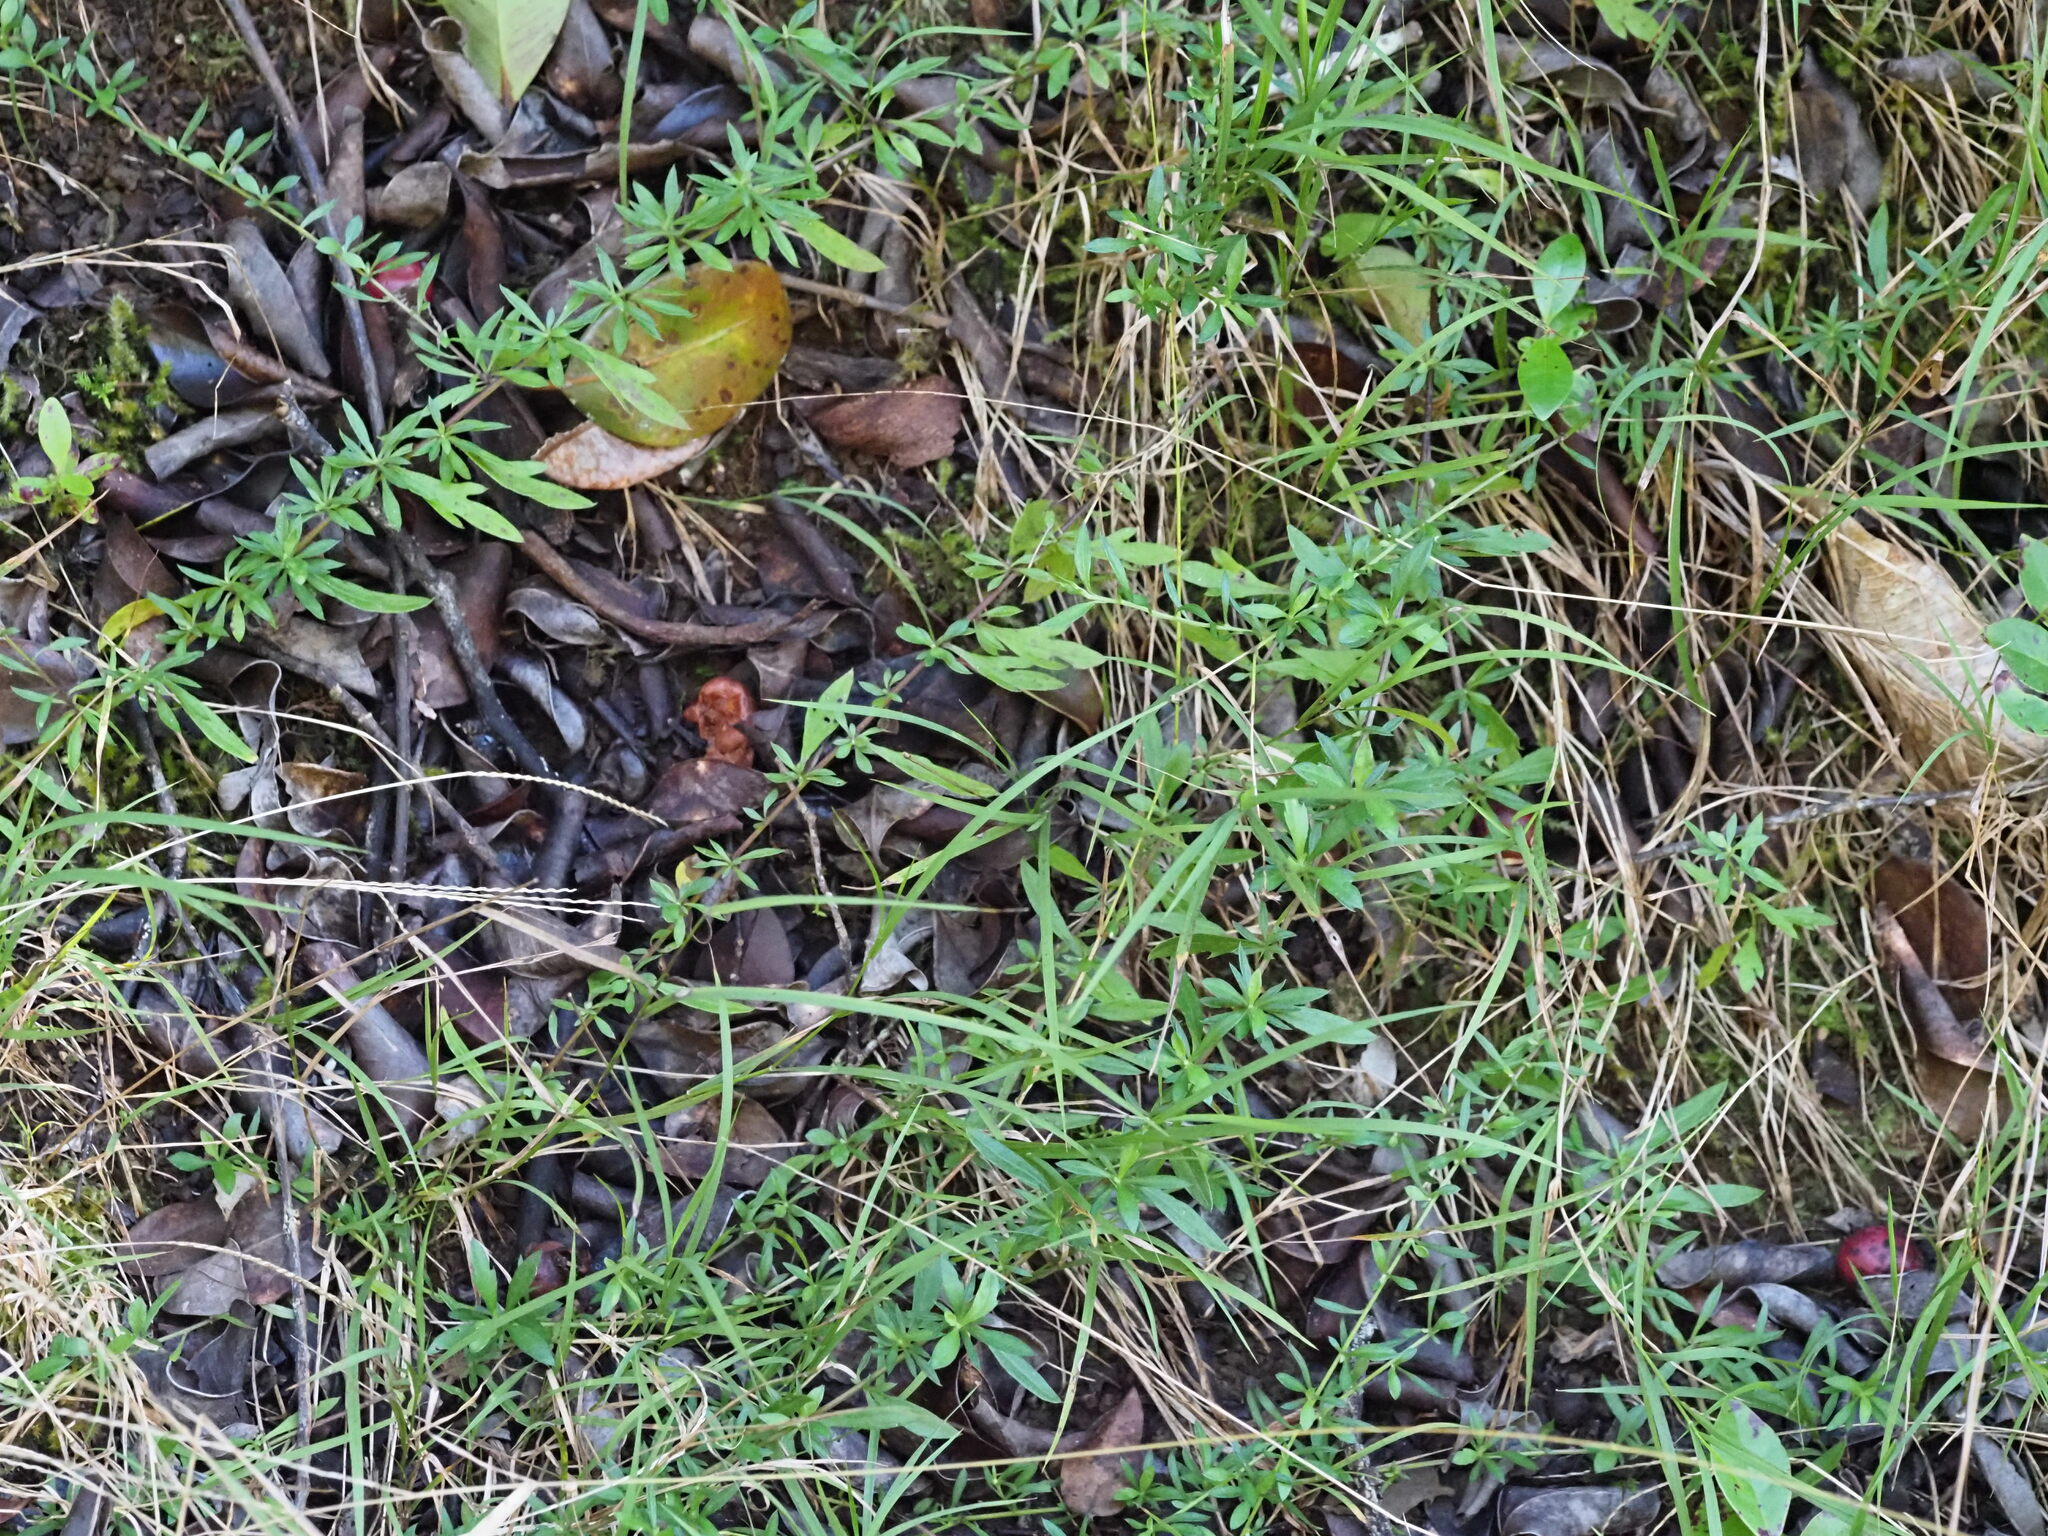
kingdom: Plantae
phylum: Tracheophyta
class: Magnoliopsida
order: Asterales
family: Asteraceae
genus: Erigeron
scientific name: Erigeron karvinskianus
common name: Mexican fleabane
